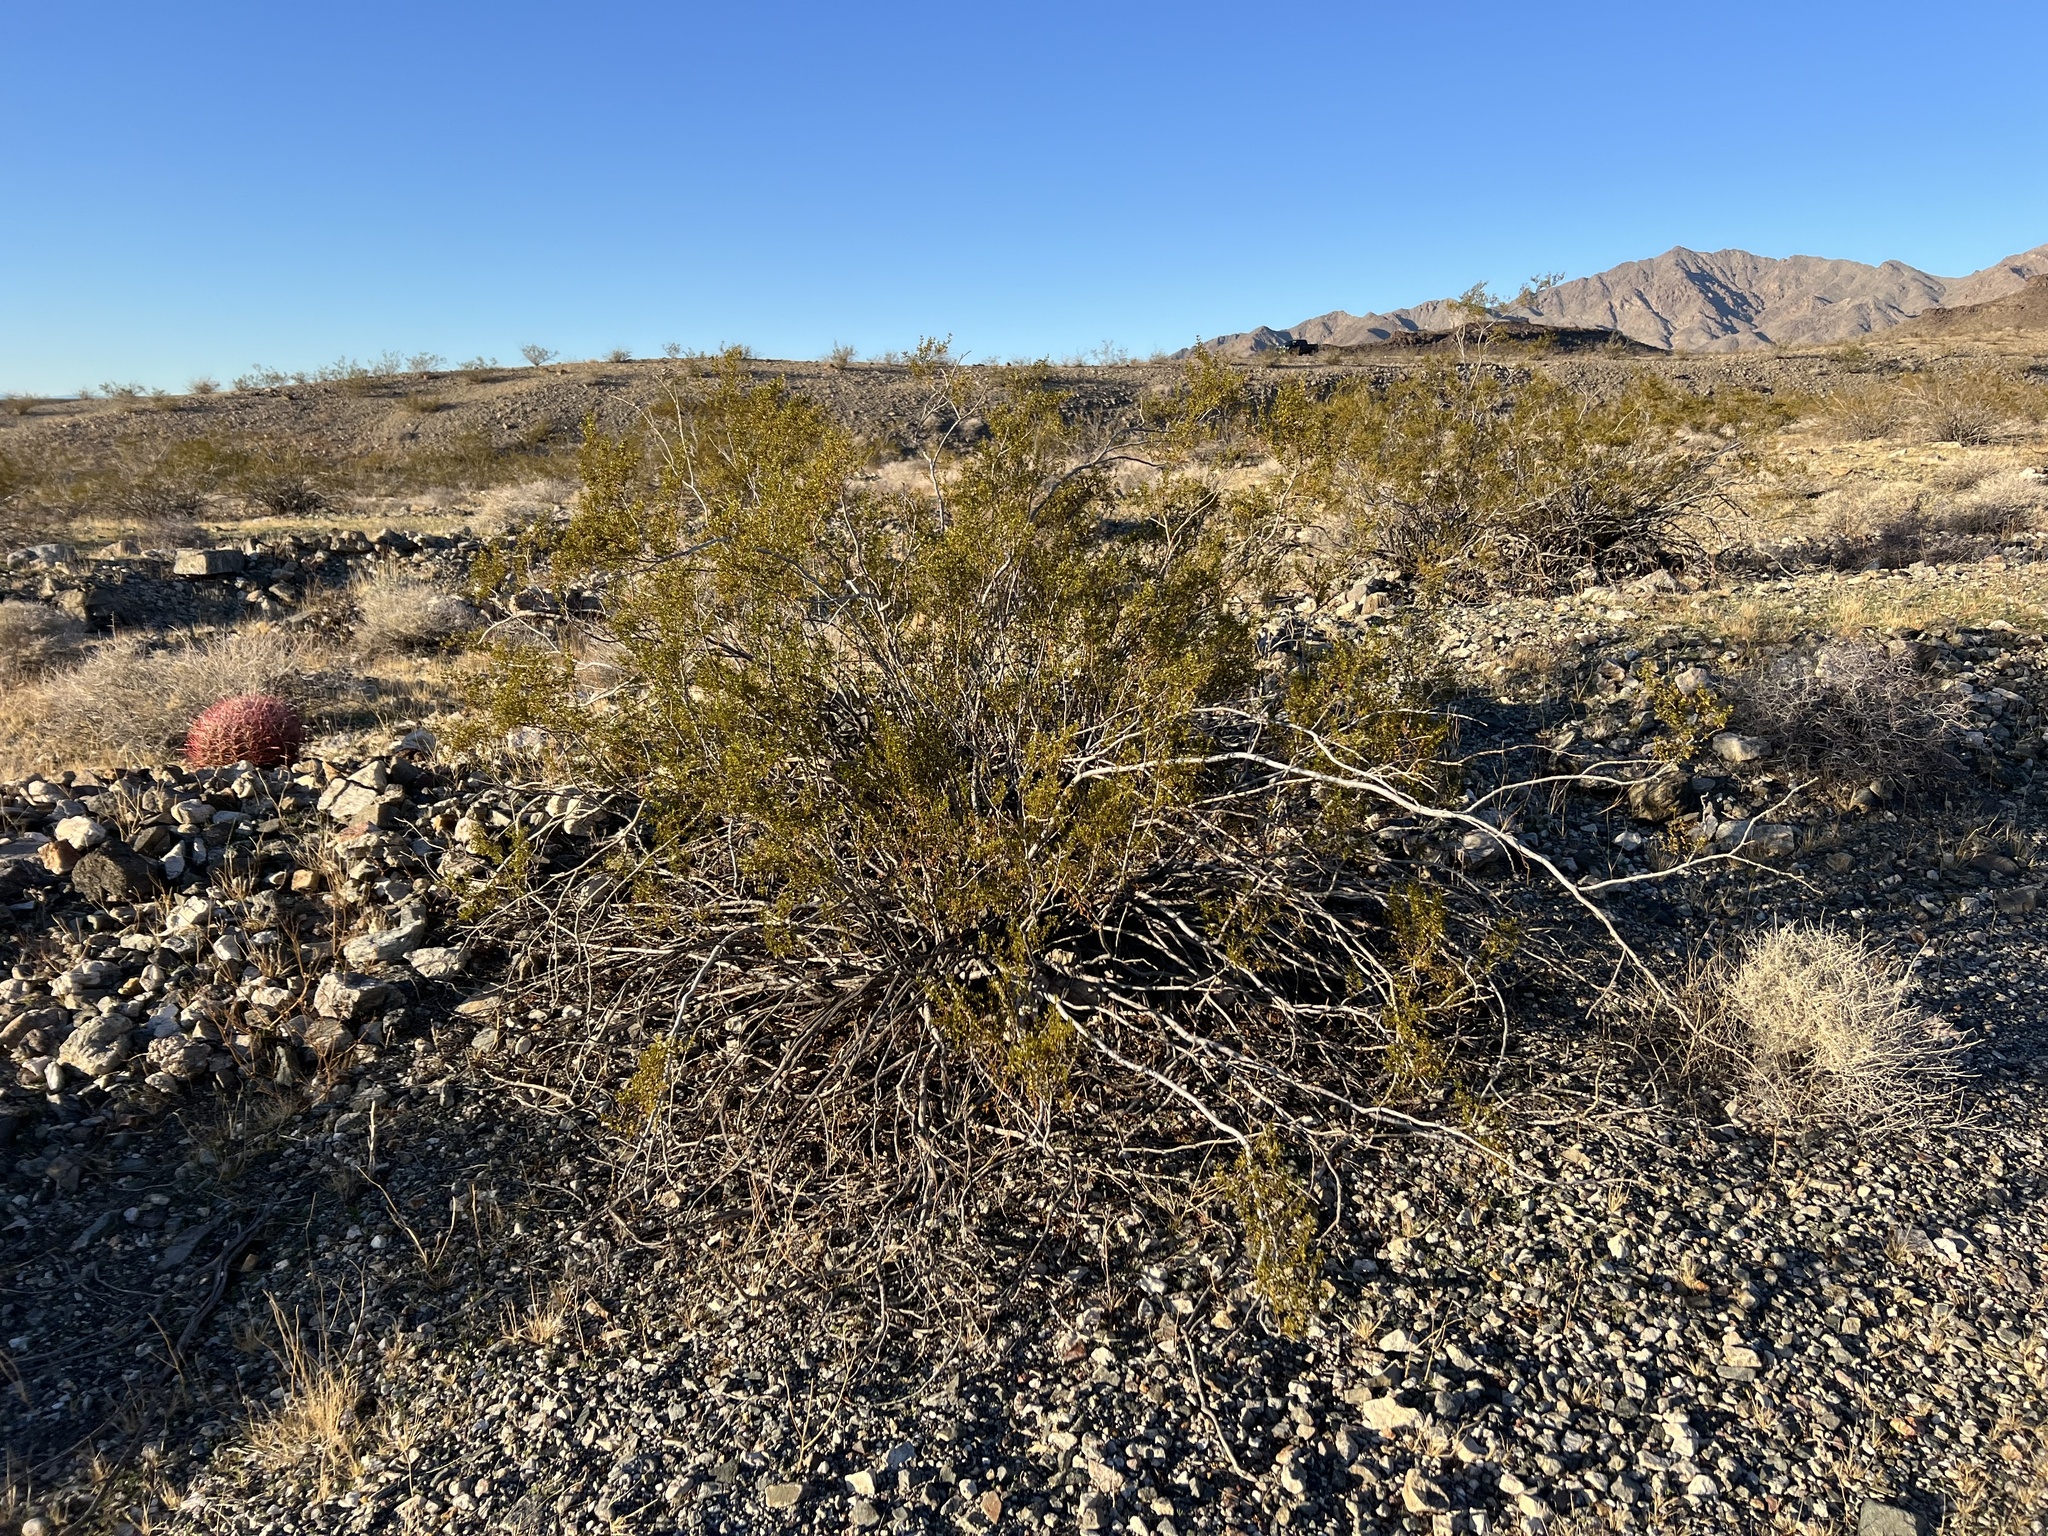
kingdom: Plantae
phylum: Tracheophyta
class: Magnoliopsida
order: Zygophyllales
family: Zygophyllaceae
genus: Larrea
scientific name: Larrea tridentata
